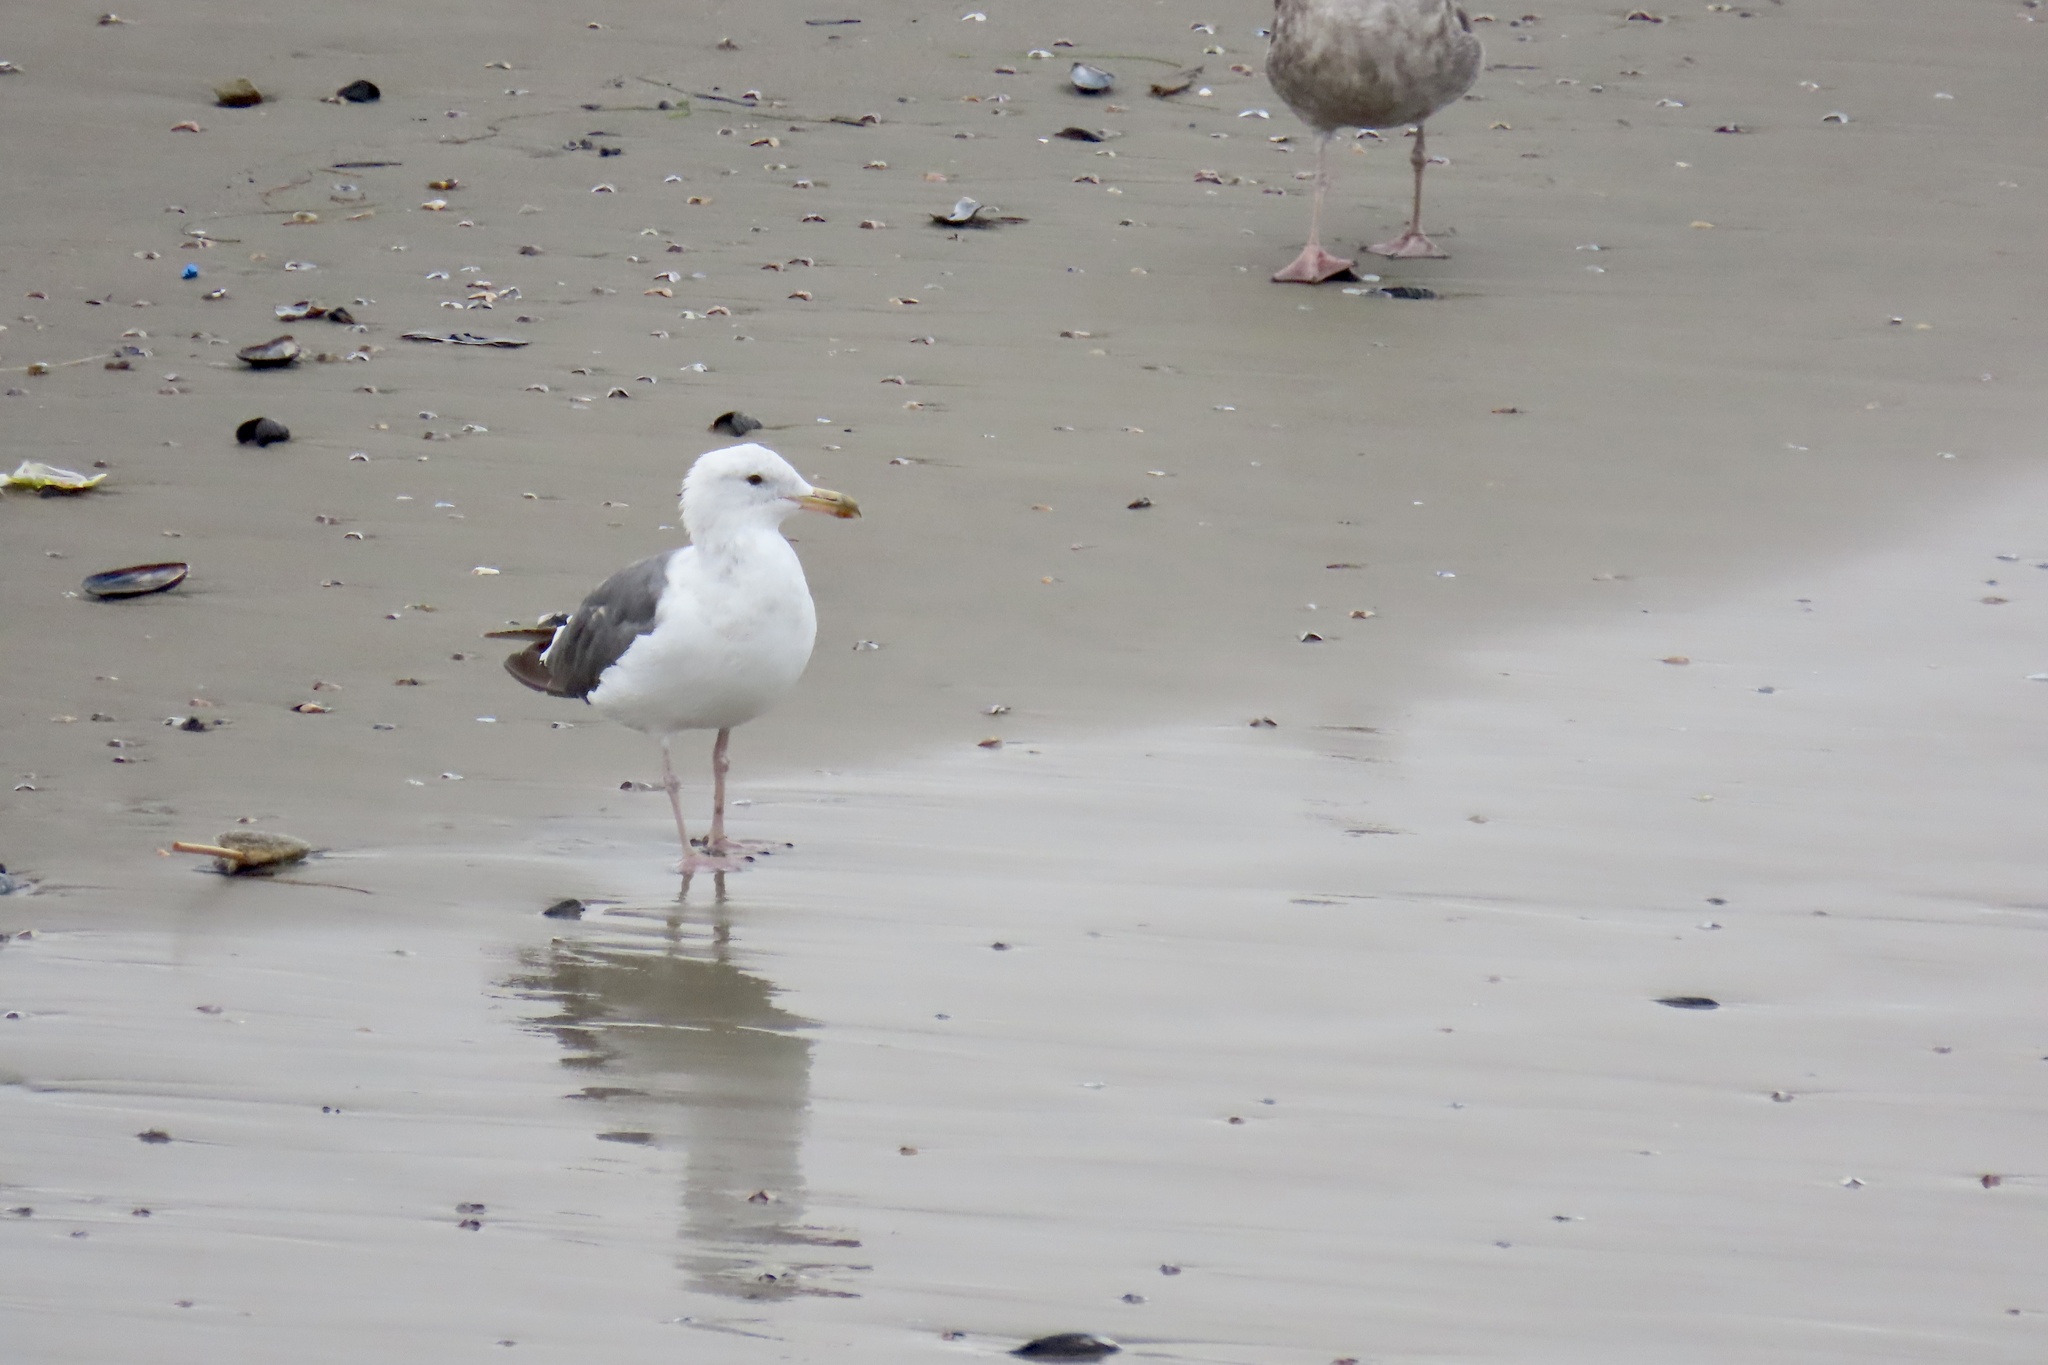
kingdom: Animalia
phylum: Chordata
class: Aves
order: Charadriiformes
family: Laridae
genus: Larus
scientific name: Larus occidentalis
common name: Western gull
